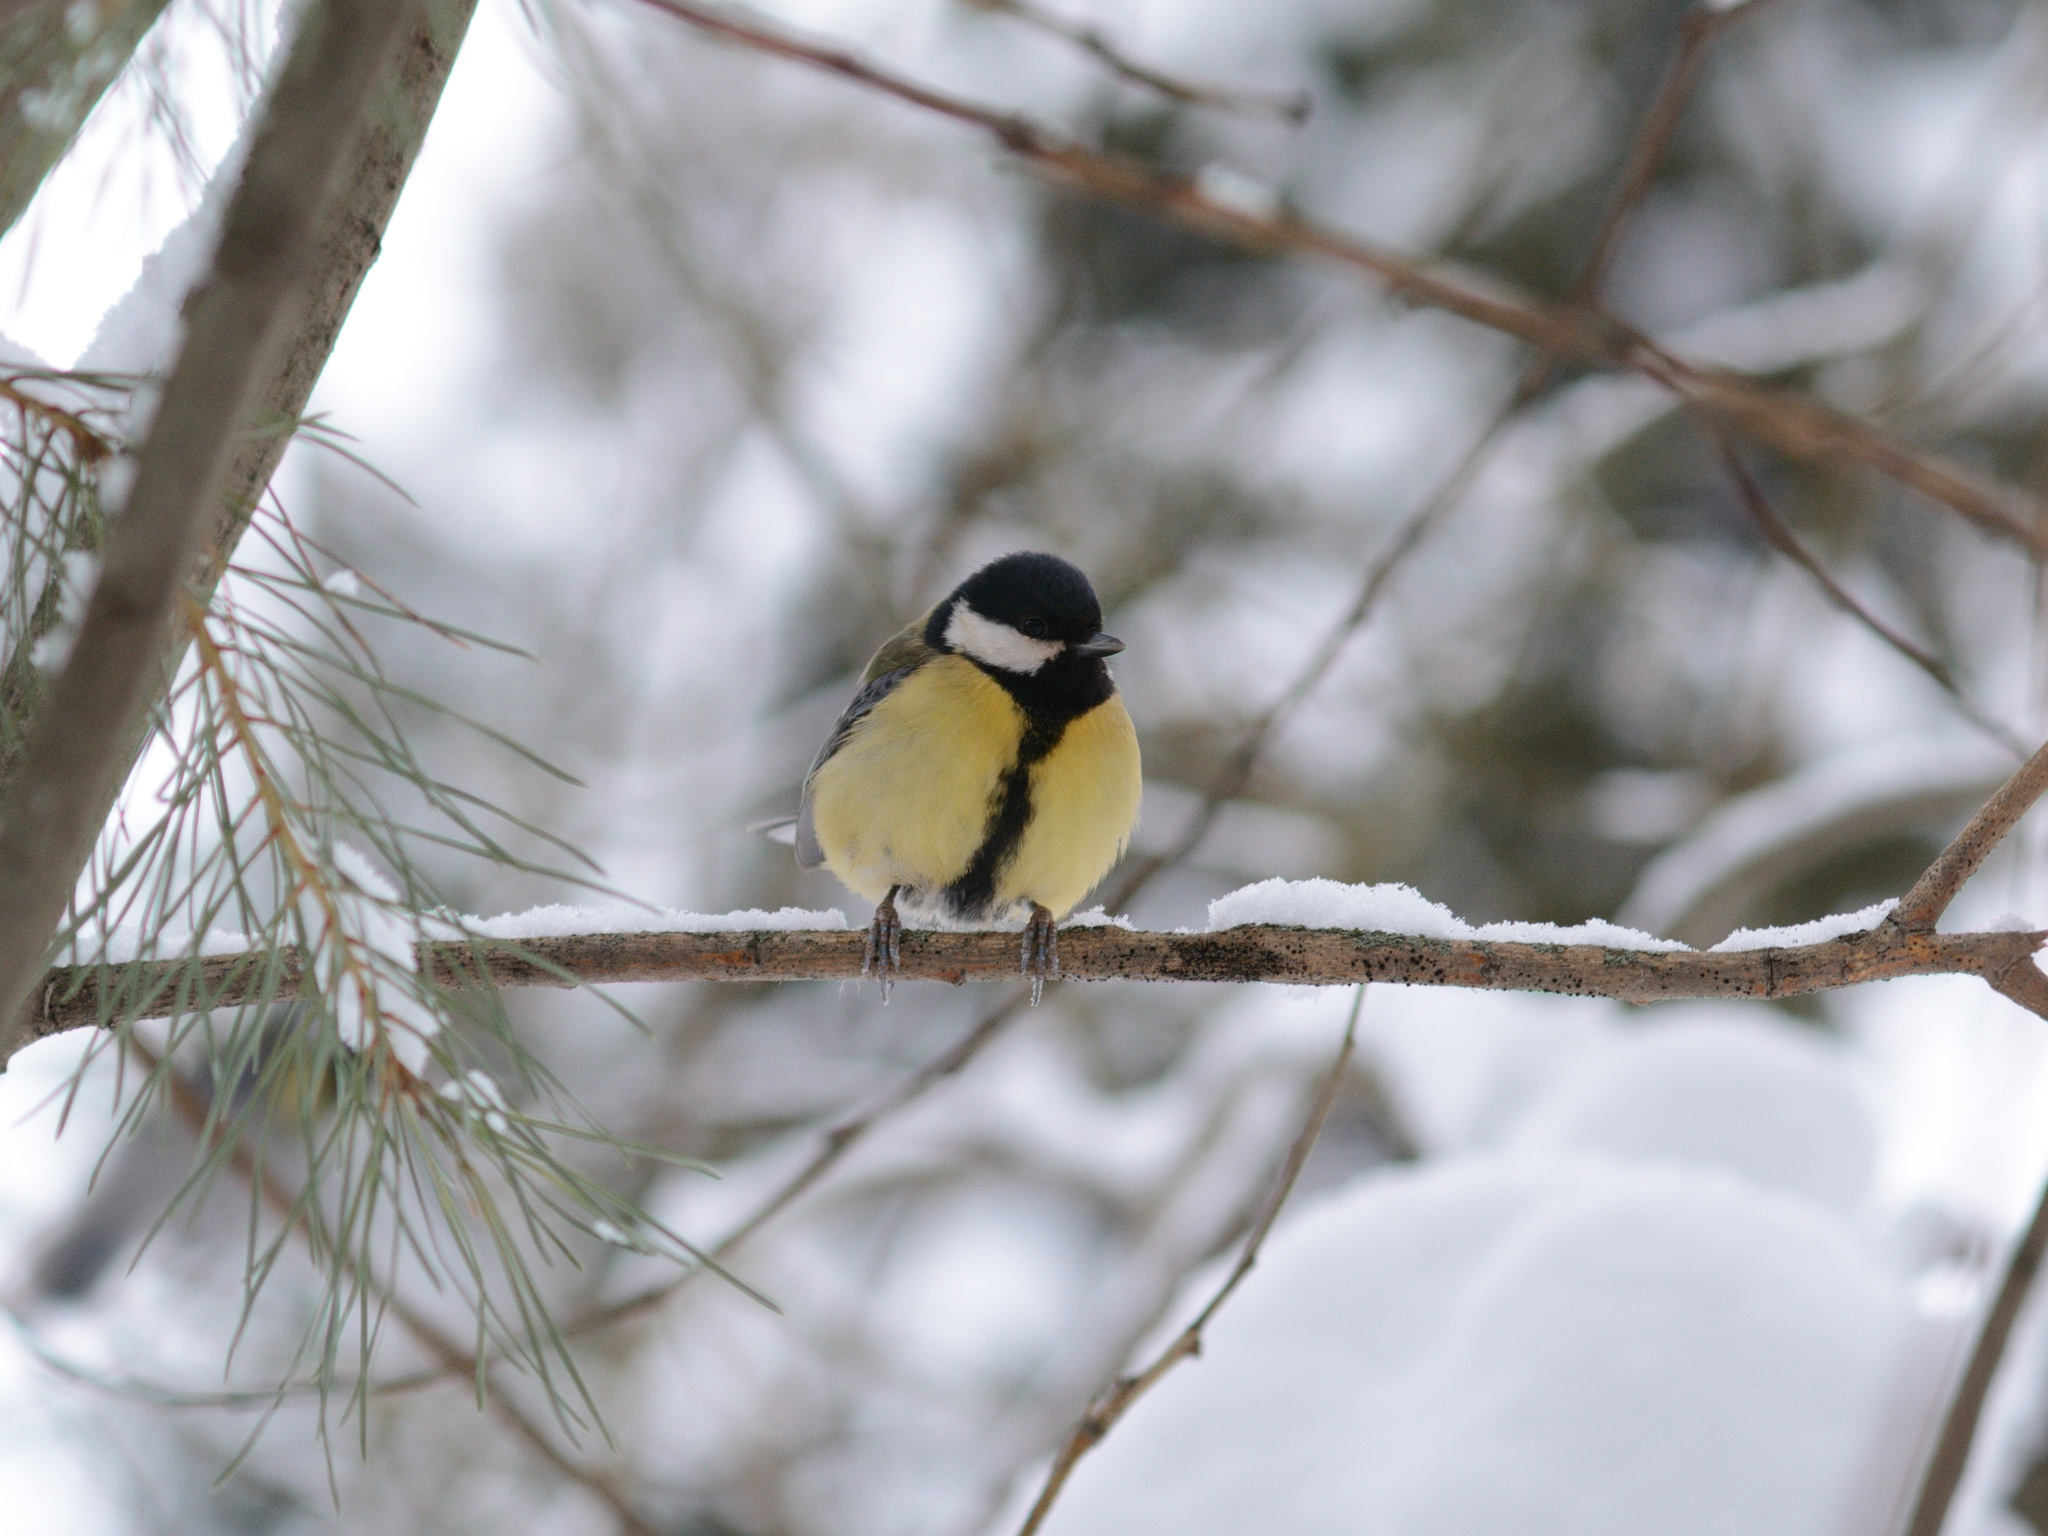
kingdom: Animalia
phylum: Chordata
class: Aves
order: Passeriformes
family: Paridae
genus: Parus
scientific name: Parus major
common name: Great tit
